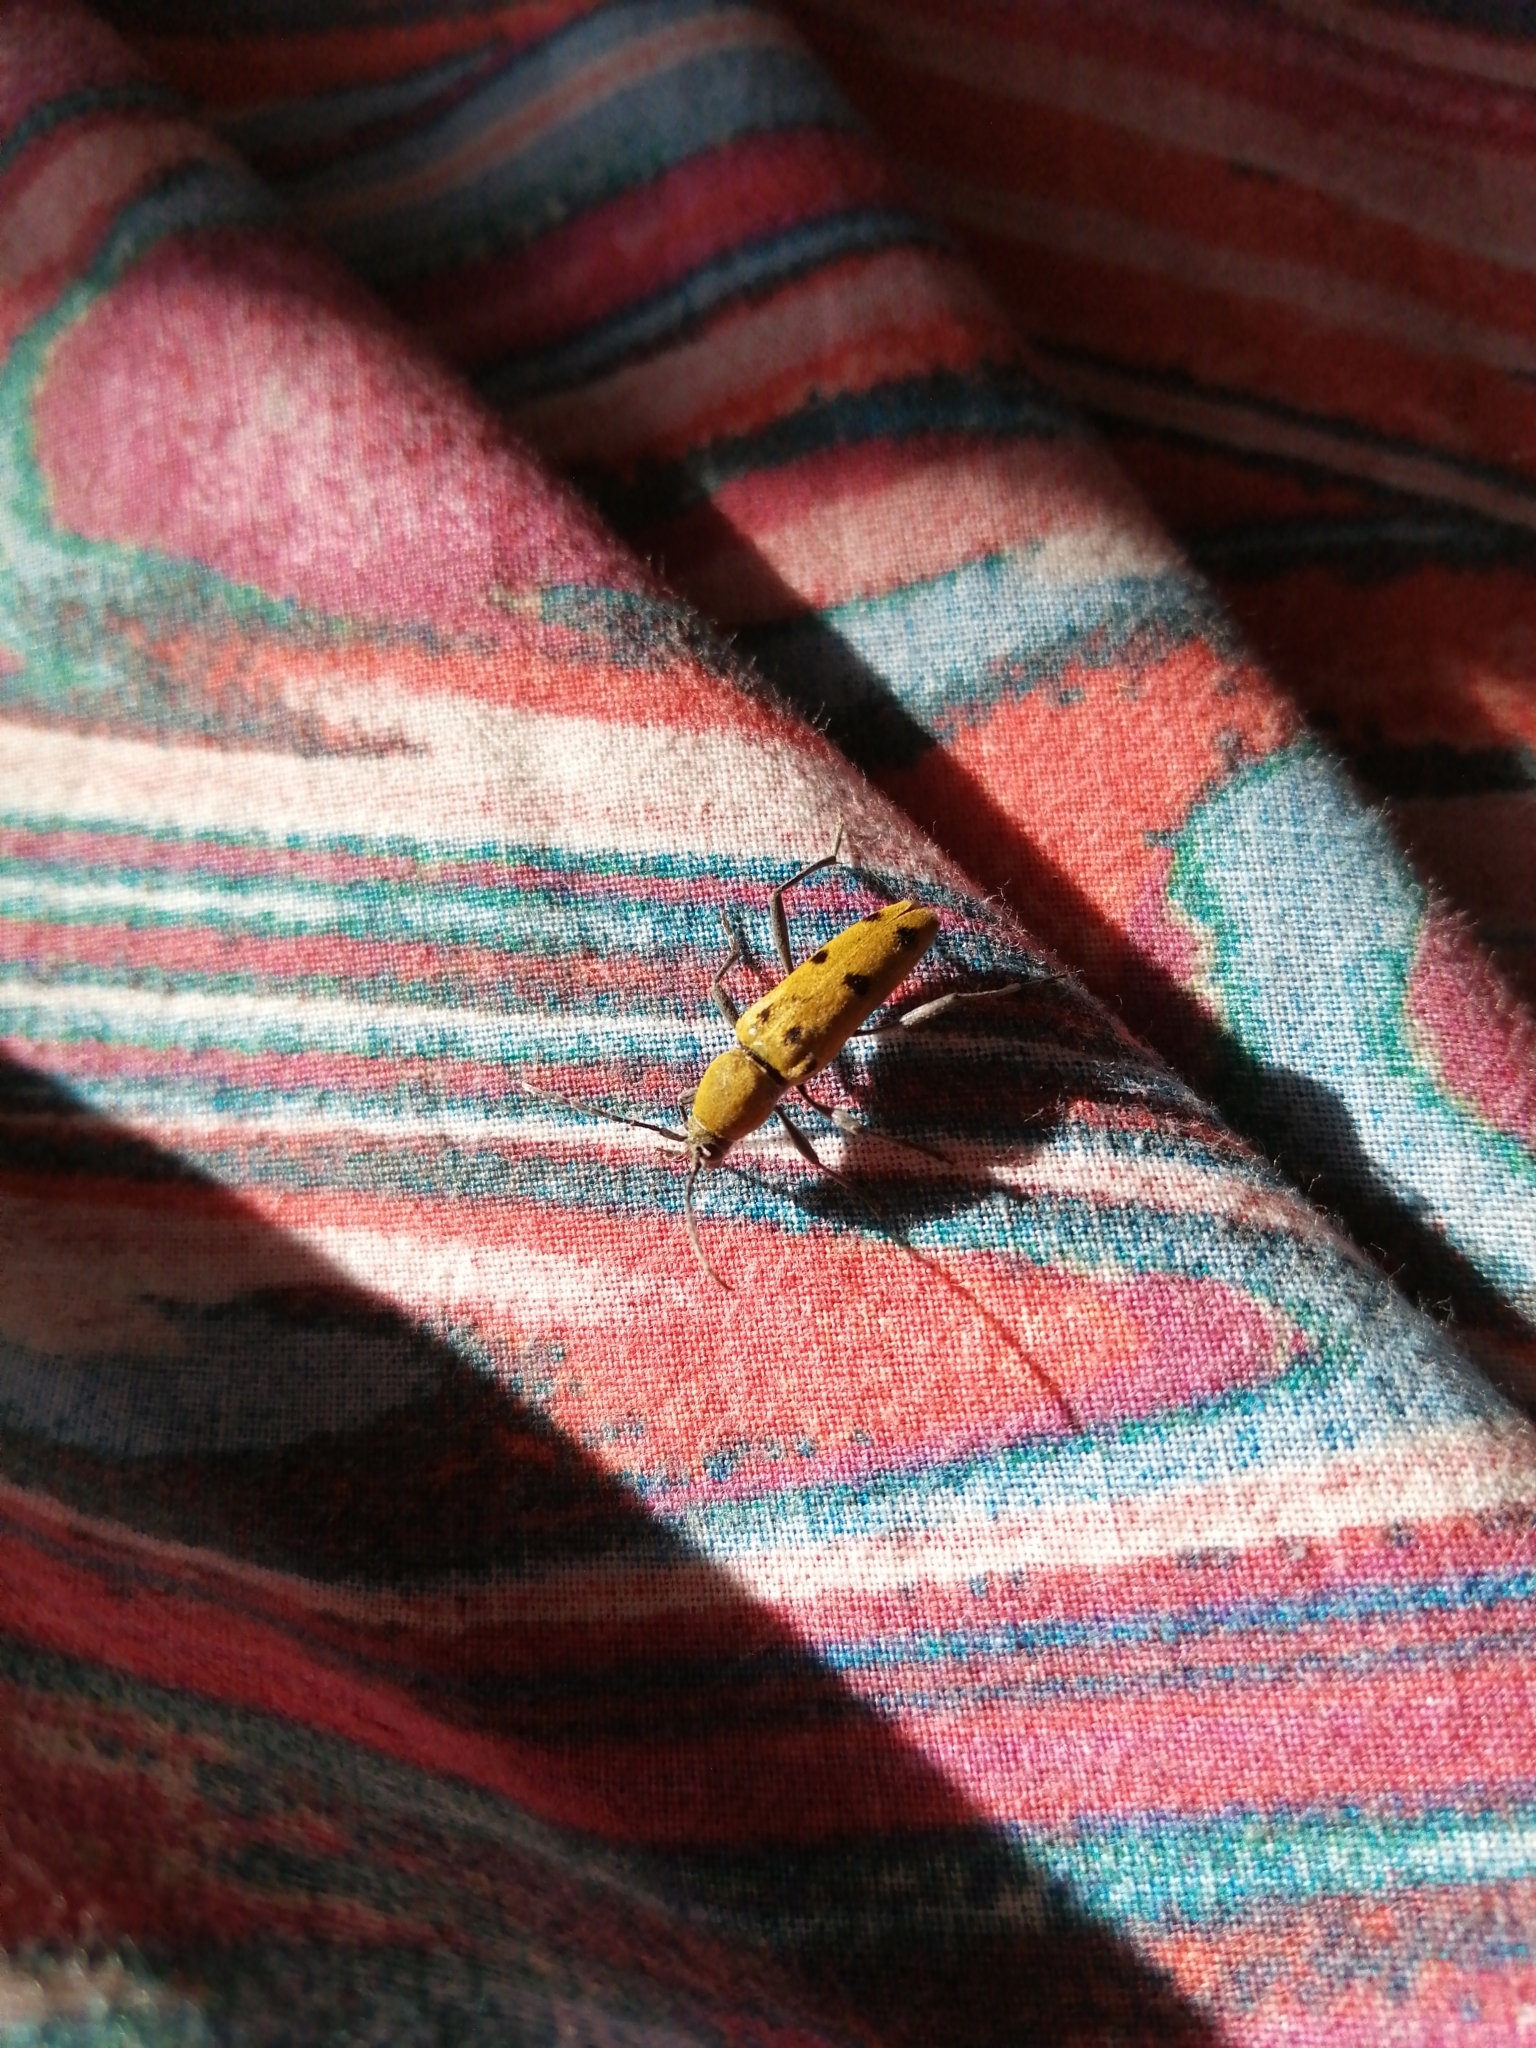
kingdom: Animalia
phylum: Arthropoda
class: Insecta
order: Coleoptera
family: Cerambycidae
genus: Chlorophorus
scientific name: Chlorophorus glabromaculatus
